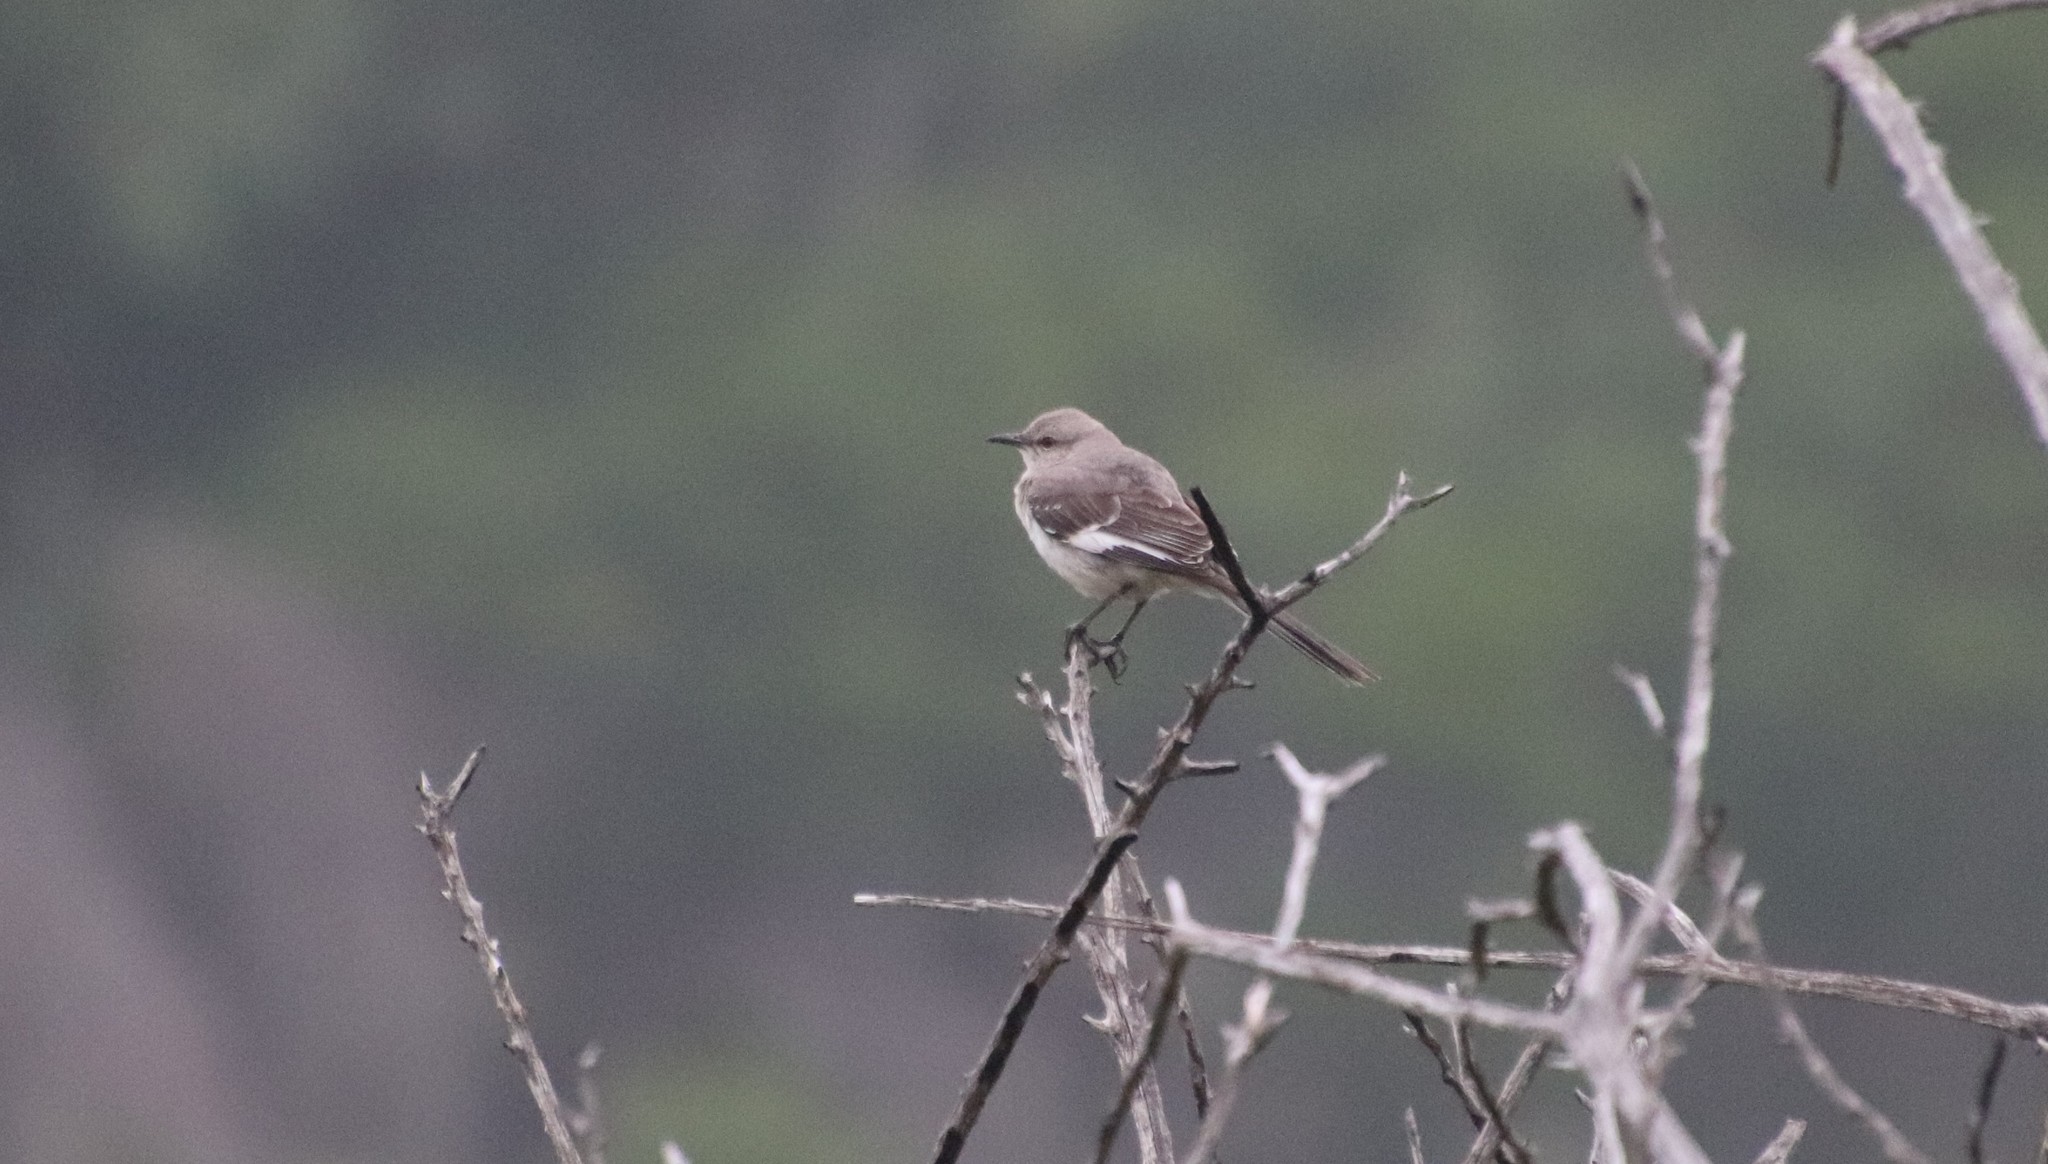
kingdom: Animalia
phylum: Chordata
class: Aves
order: Passeriformes
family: Mimidae
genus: Mimus
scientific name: Mimus polyglottos
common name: Northern mockingbird
